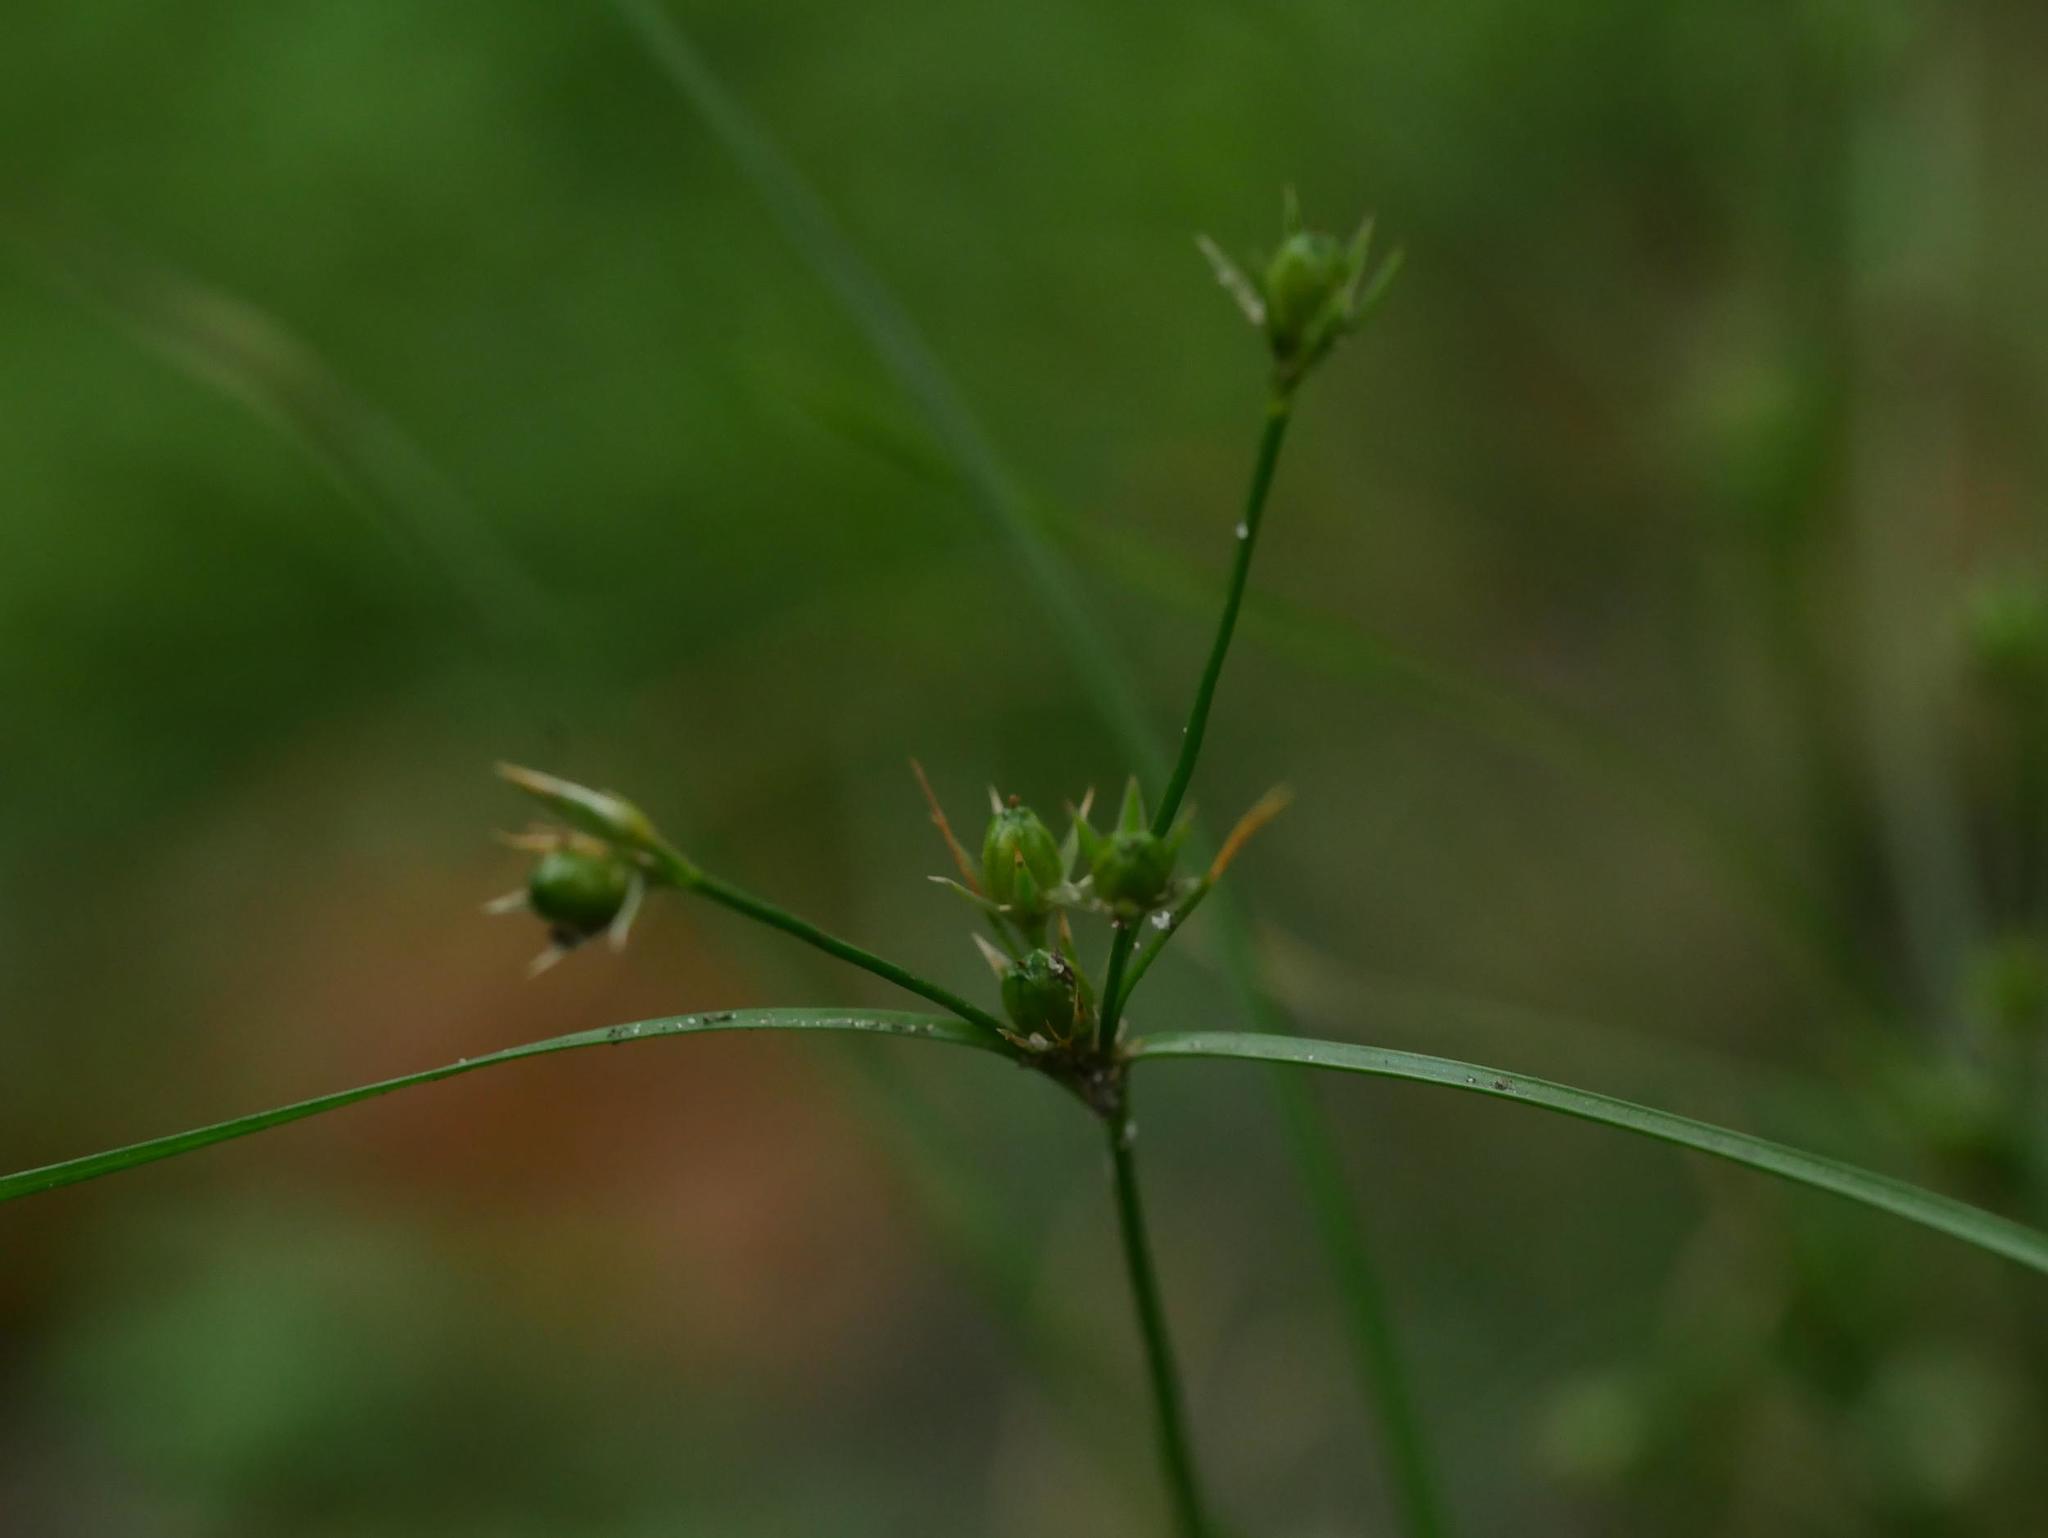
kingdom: Plantae
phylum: Tracheophyta
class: Liliopsida
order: Poales
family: Juncaceae
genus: Juncus
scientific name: Juncus tenuis
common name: Slender rush
